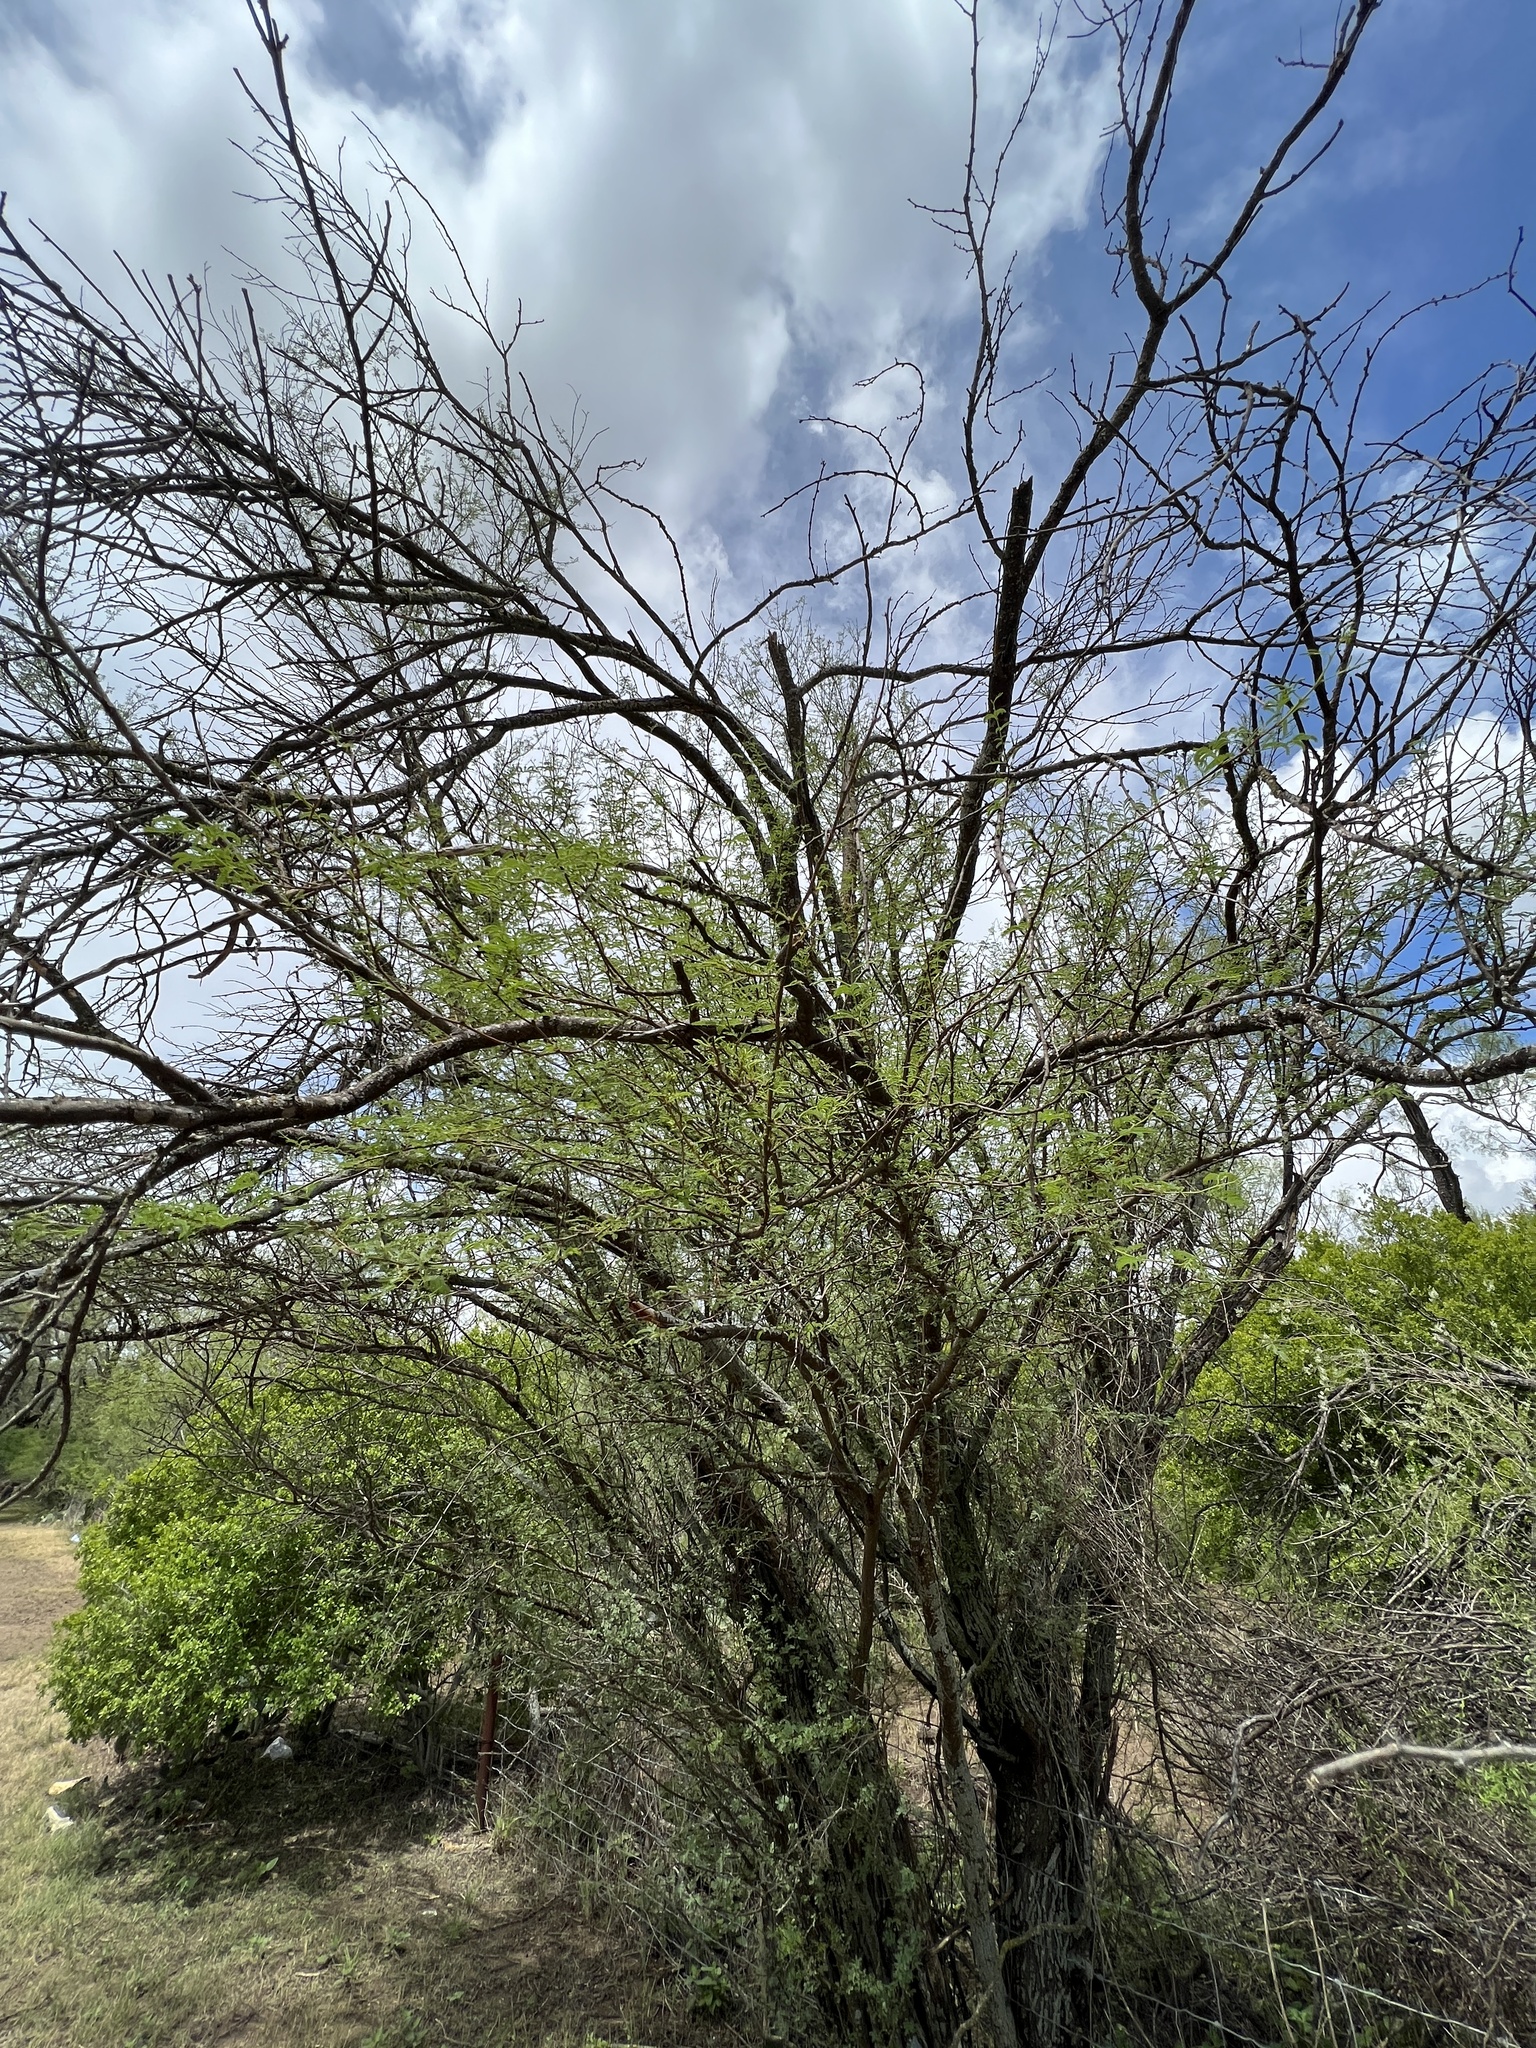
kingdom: Plantae
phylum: Tracheophyta
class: Magnoliopsida
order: Fabales
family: Fabaceae
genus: Vachellia
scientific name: Vachellia farnesiana
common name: Sweet acacia
